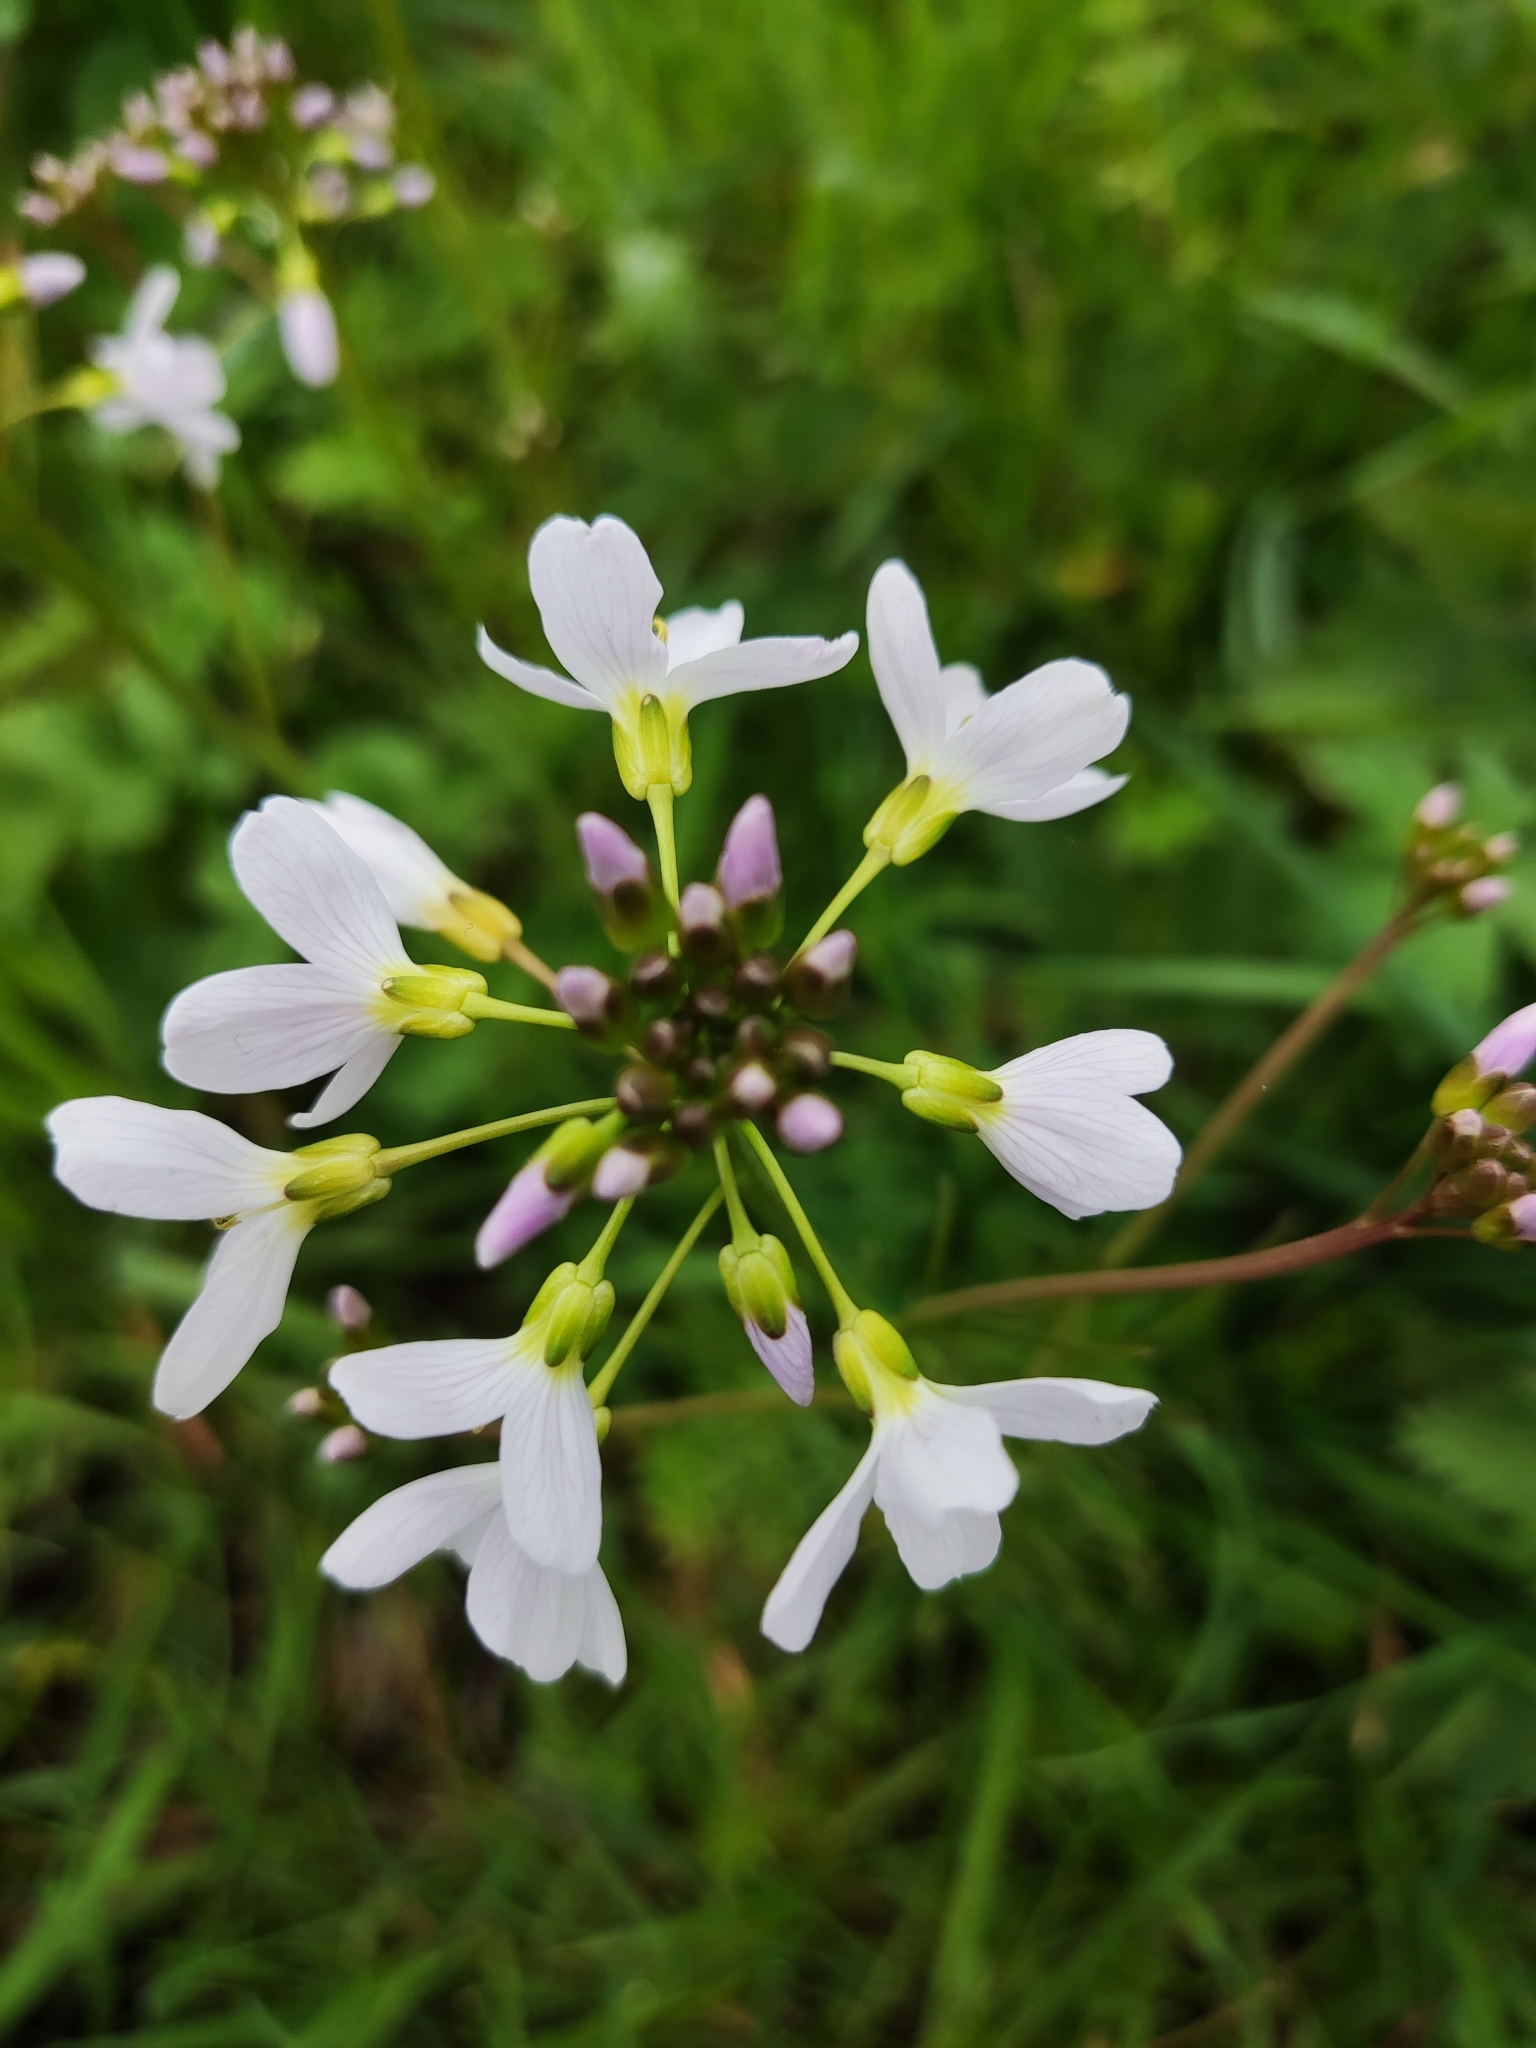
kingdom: Plantae
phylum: Tracheophyta
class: Magnoliopsida
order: Brassicales
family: Brassicaceae
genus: Cardamine
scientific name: Cardamine pratensis
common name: Cuckoo flower
